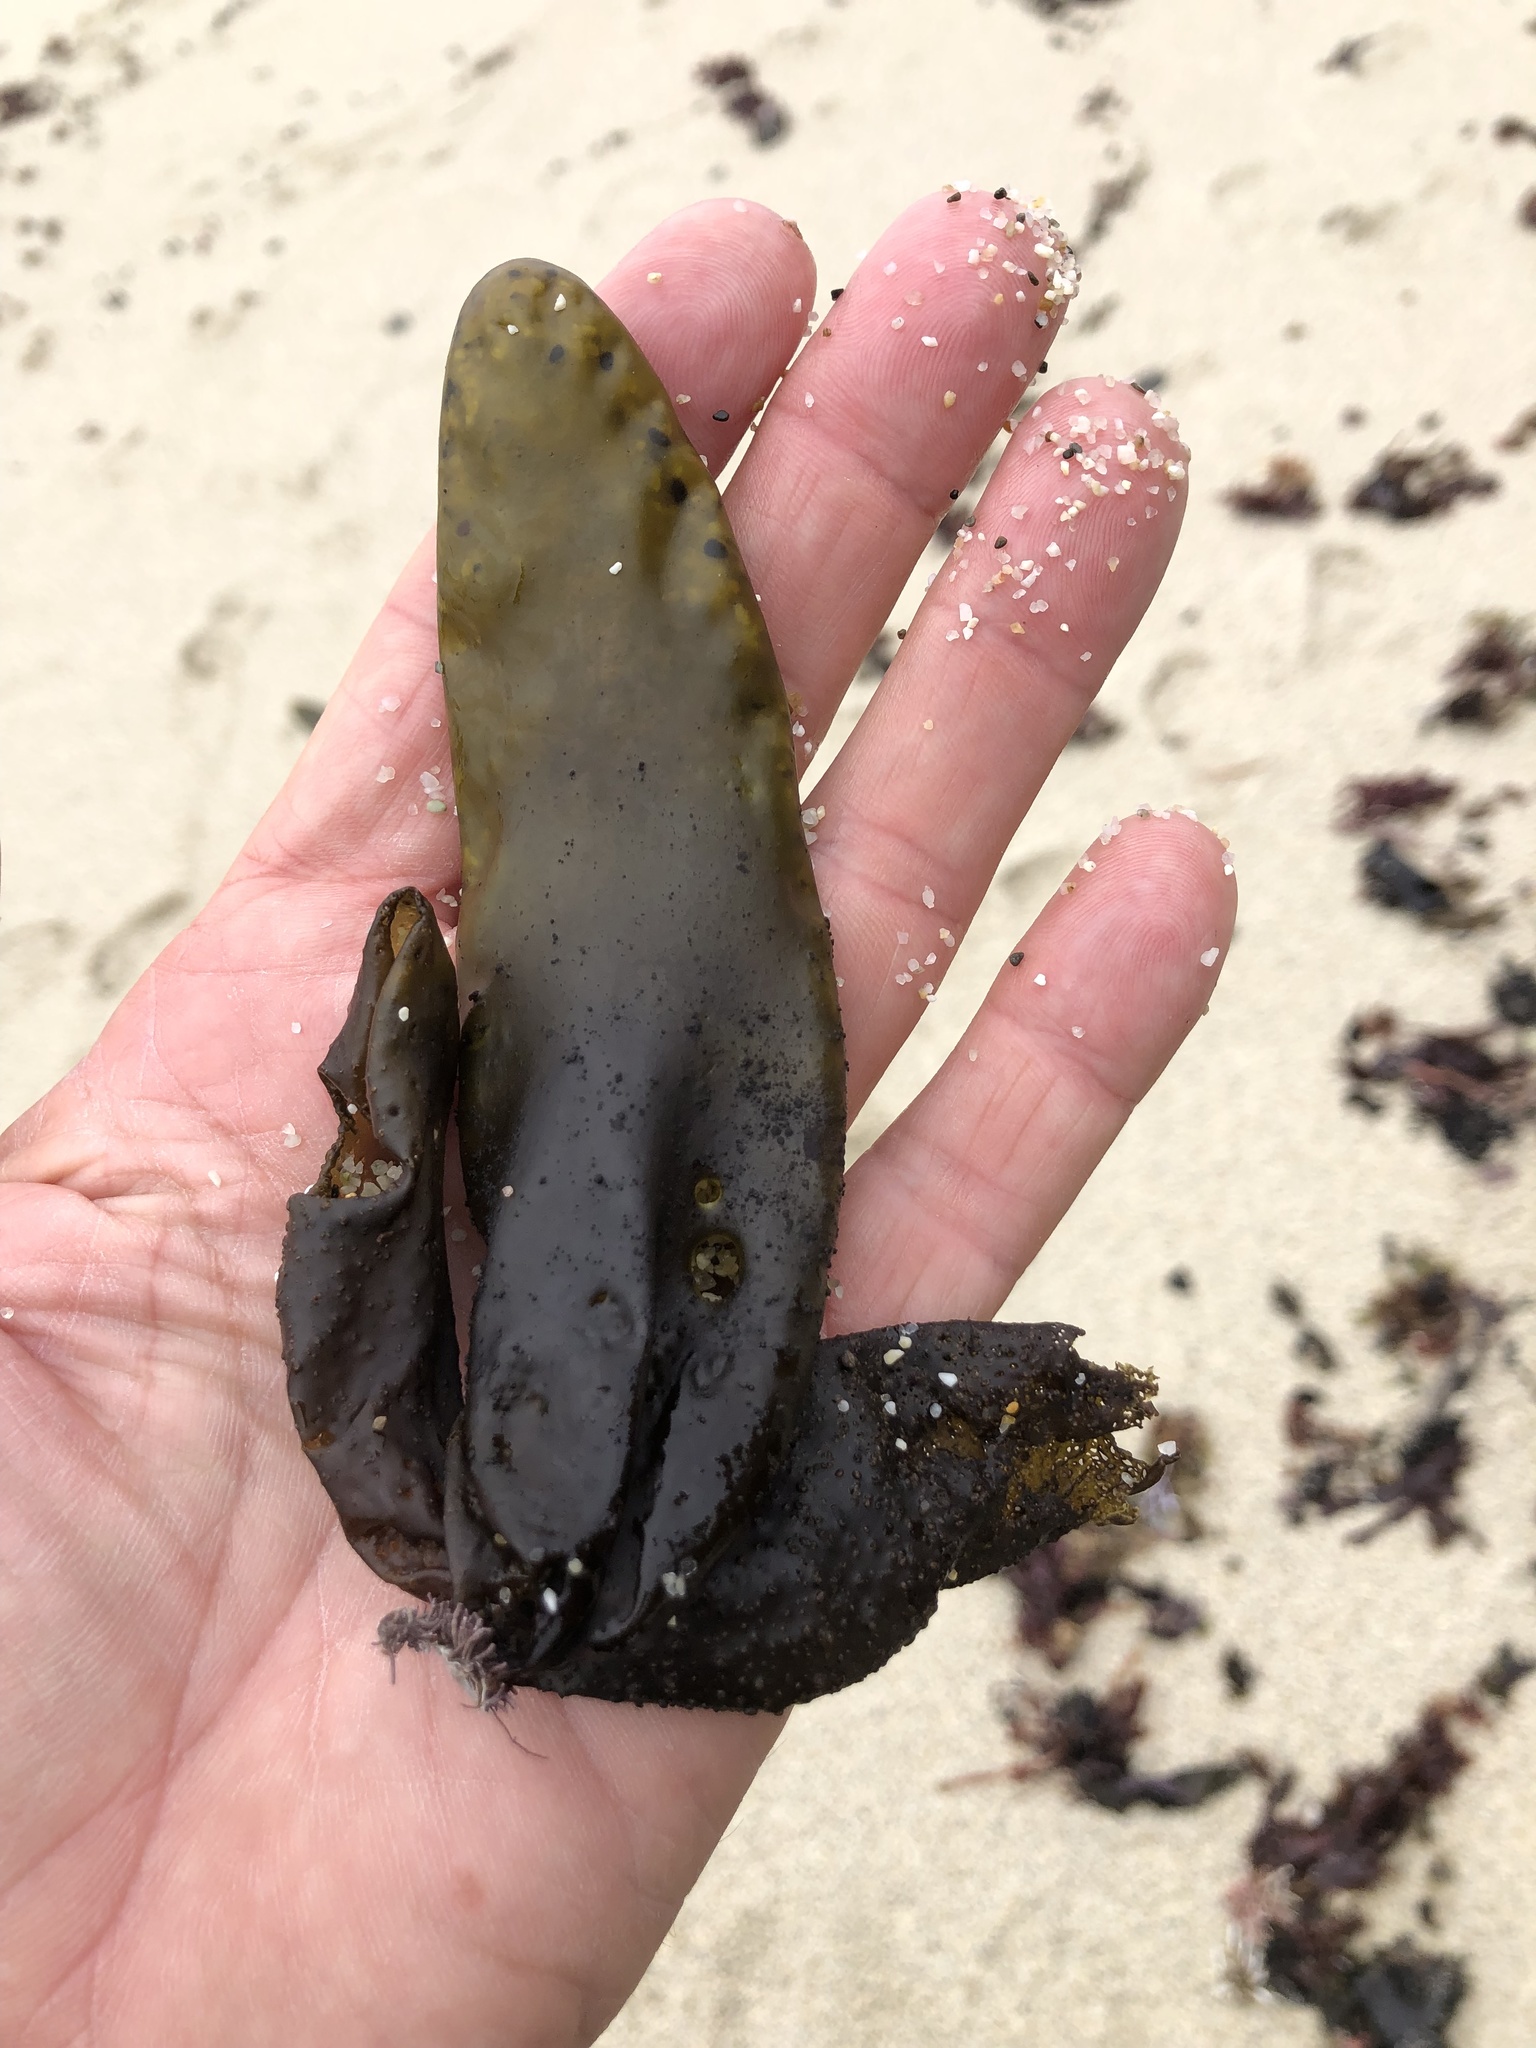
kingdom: Plantae
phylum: Rhodophyta
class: Florideophyceae
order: Palmariales
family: Palmariaceae
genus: Halosaccion
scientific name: Halosaccion glandiforme
